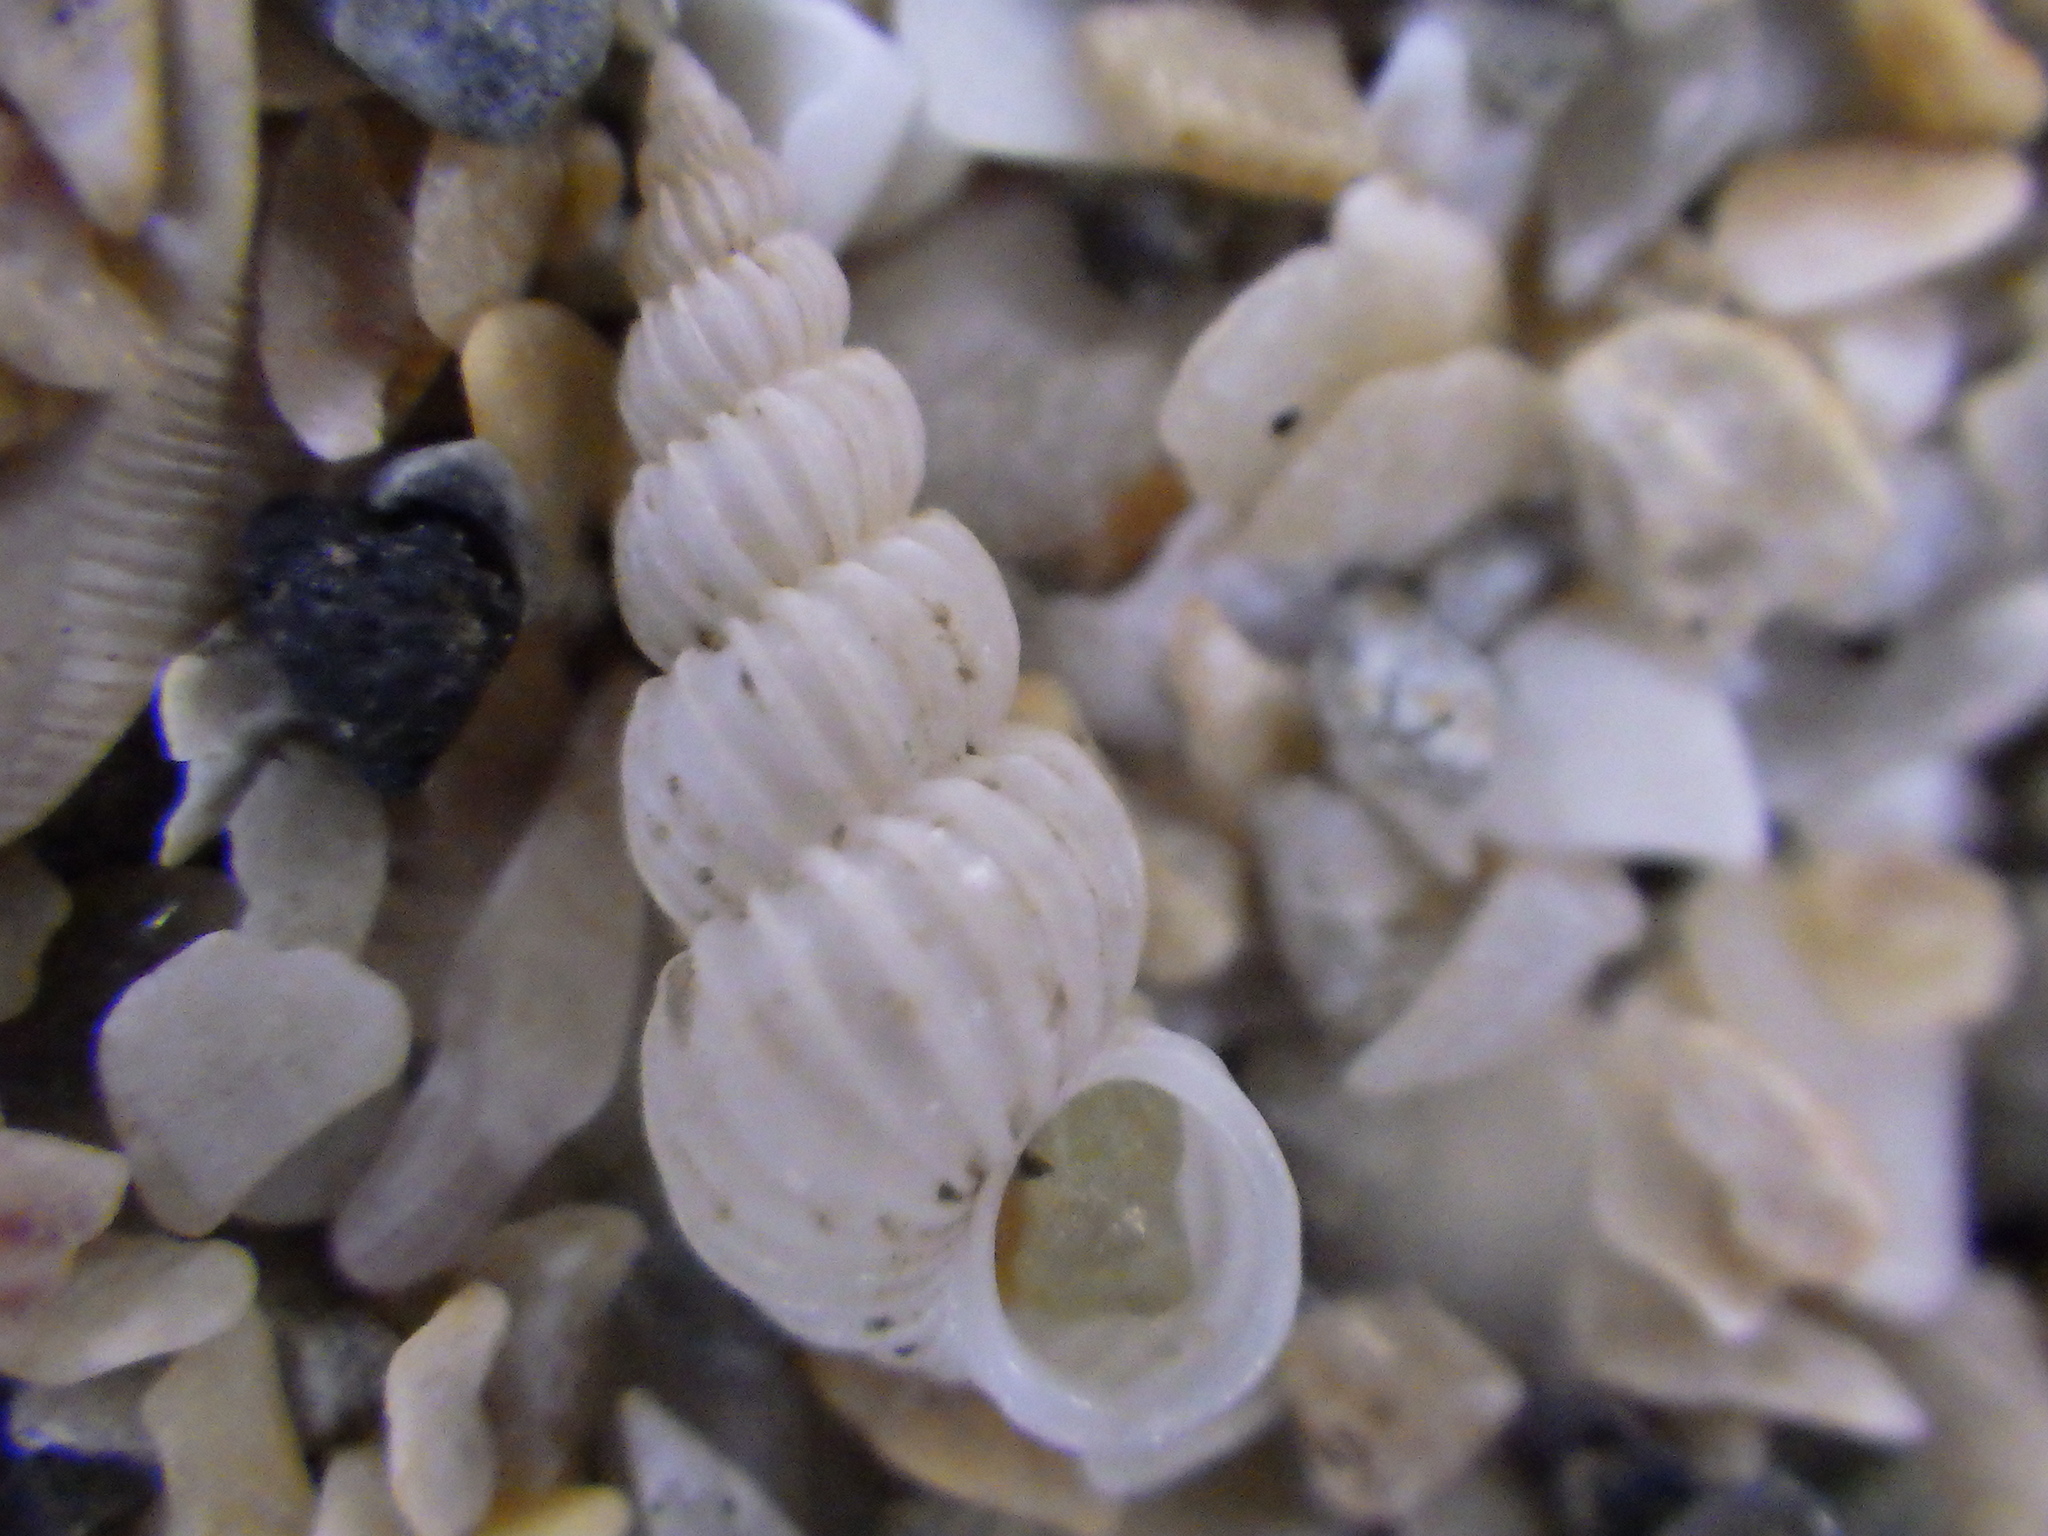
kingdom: Animalia
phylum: Mollusca
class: Gastropoda
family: Epitoniidae
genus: Epitonium
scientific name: Epitonium jukesianum
